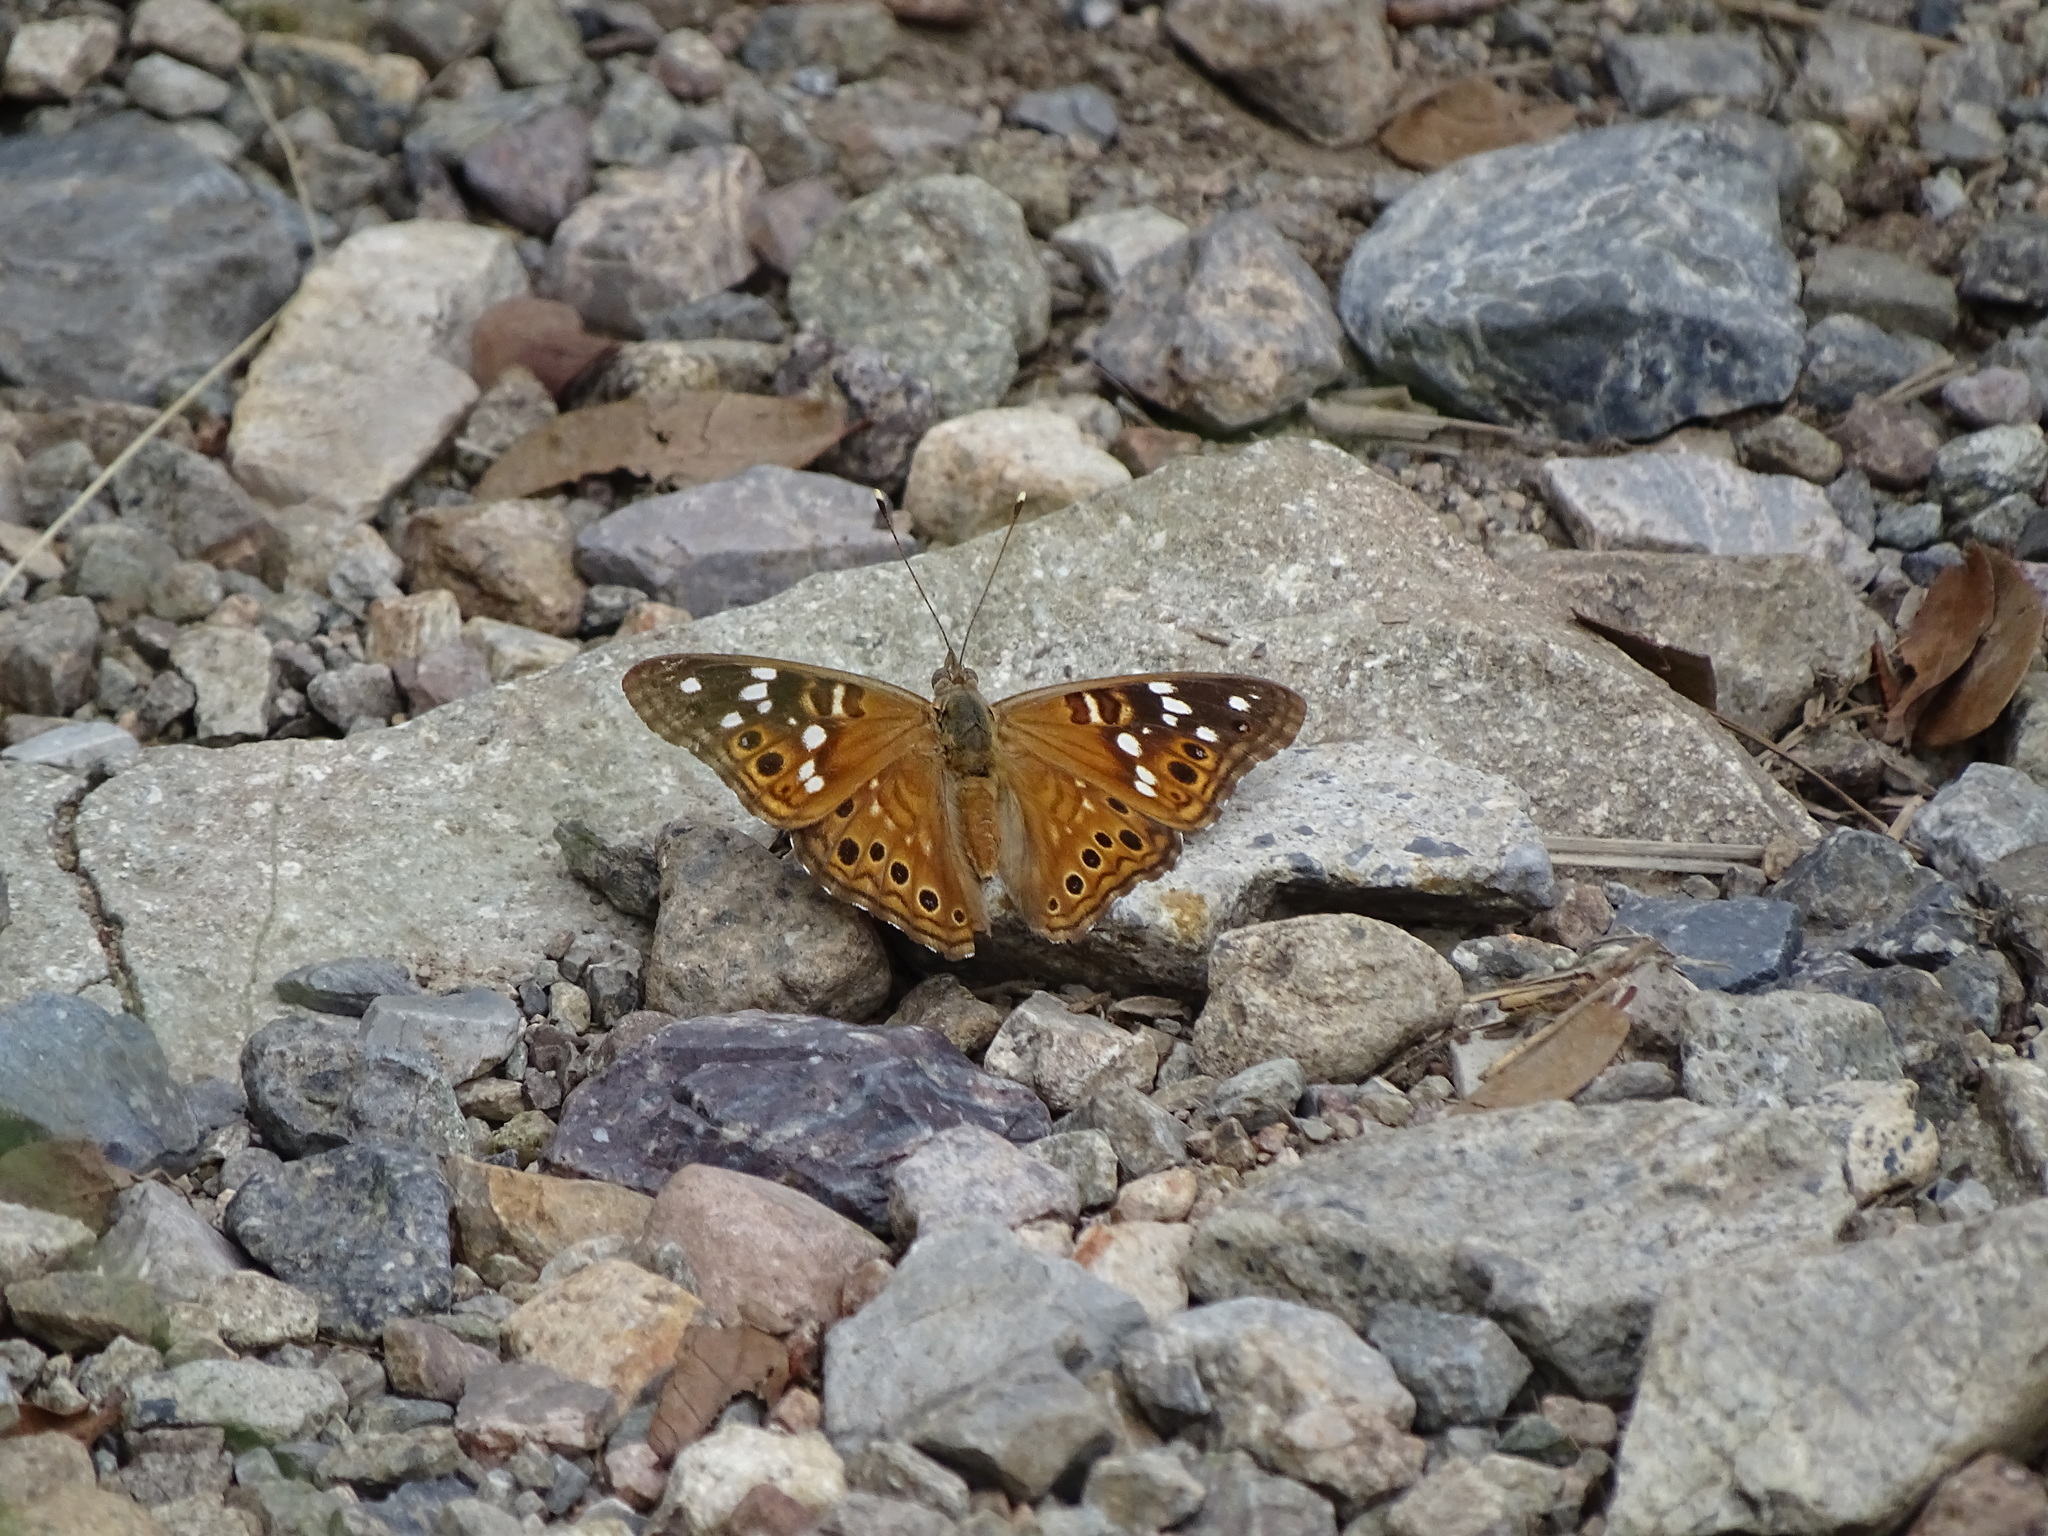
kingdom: Animalia
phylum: Arthropoda
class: Insecta
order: Lepidoptera
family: Nymphalidae
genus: Asterocampa
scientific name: Asterocampa leilia
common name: Empress leilia
